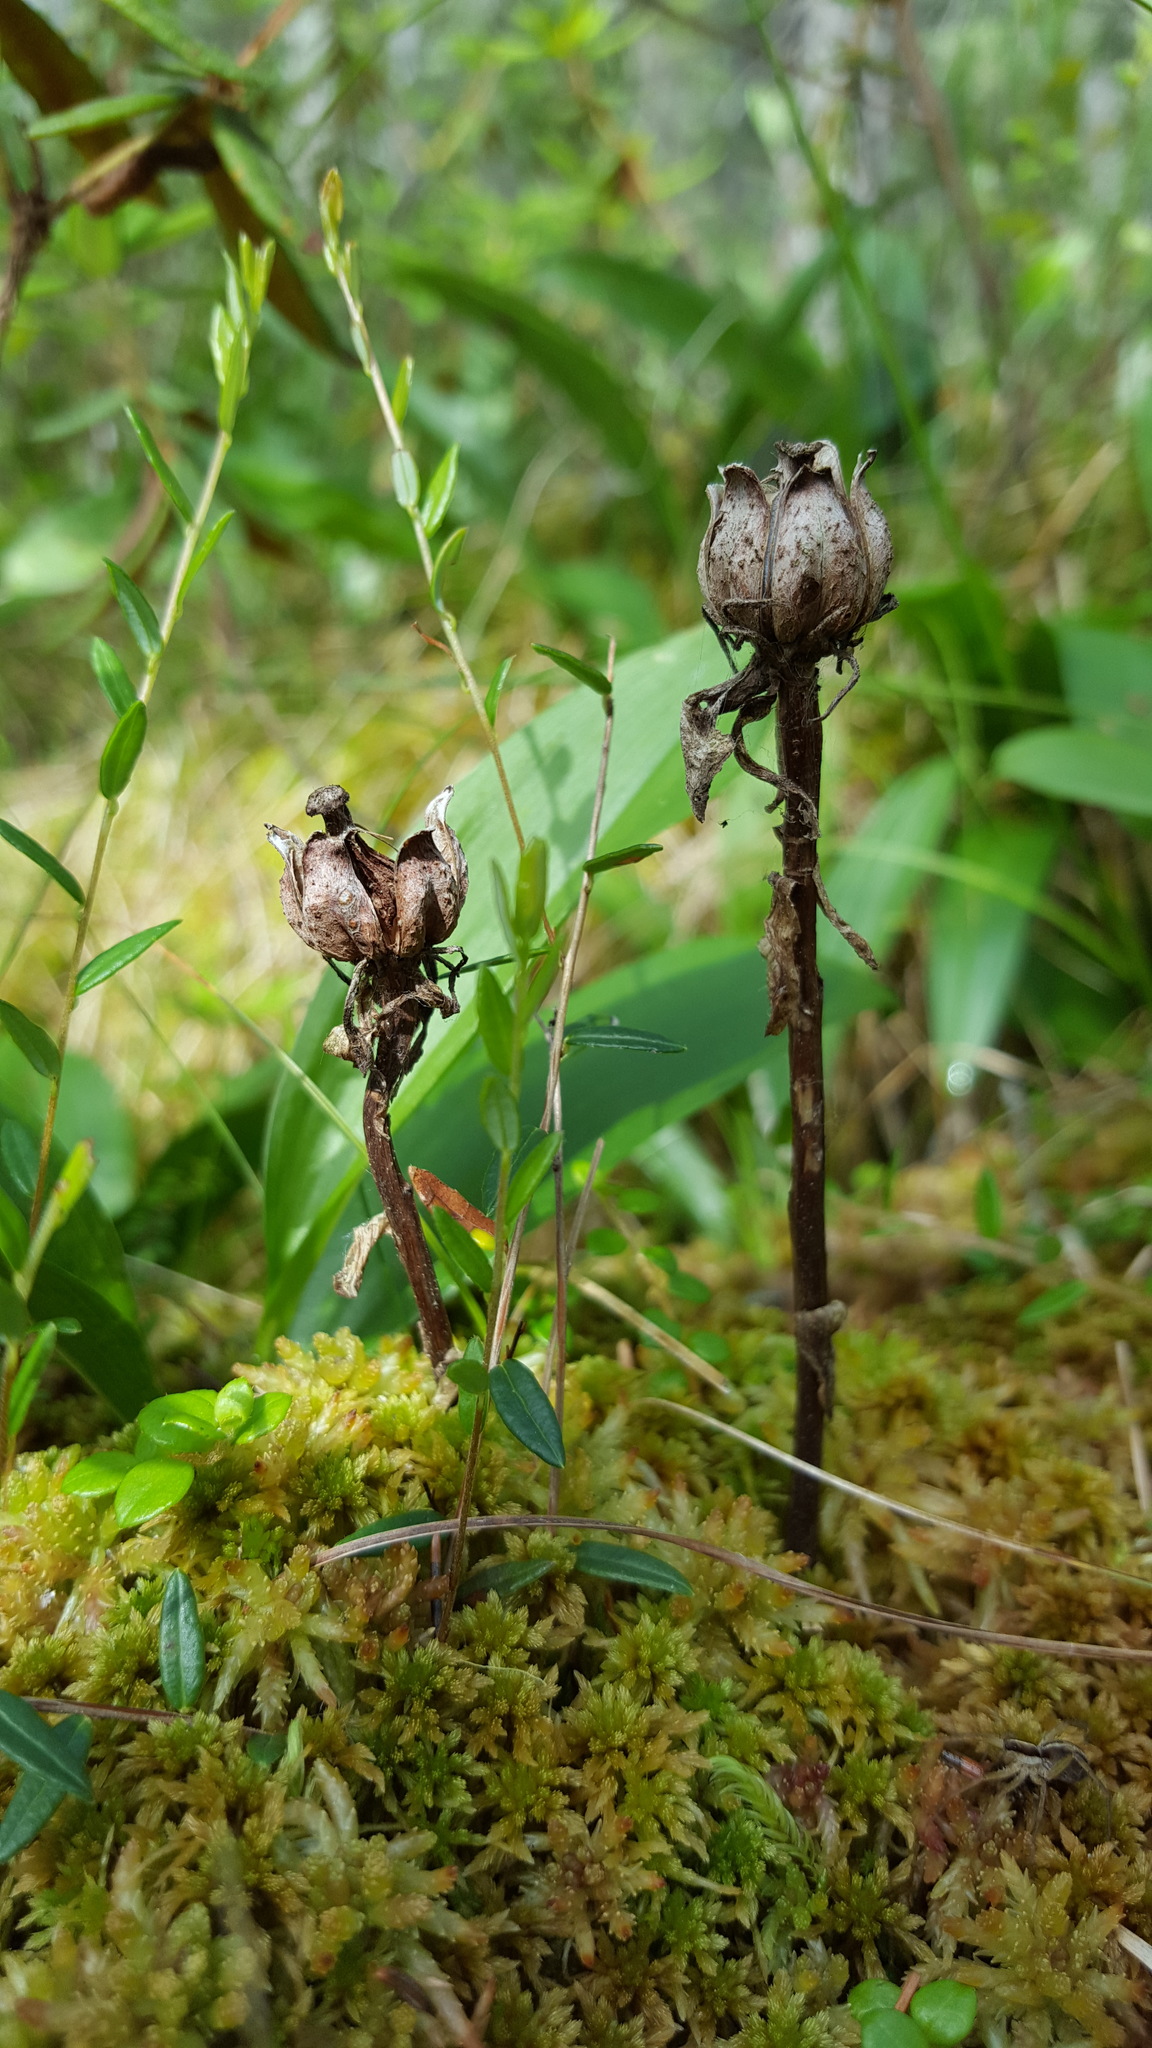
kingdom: Plantae
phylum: Tracheophyta
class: Magnoliopsida
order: Ericales
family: Ericaceae
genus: Monotropa
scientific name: Monotropa uniflora
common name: Convulsion root
